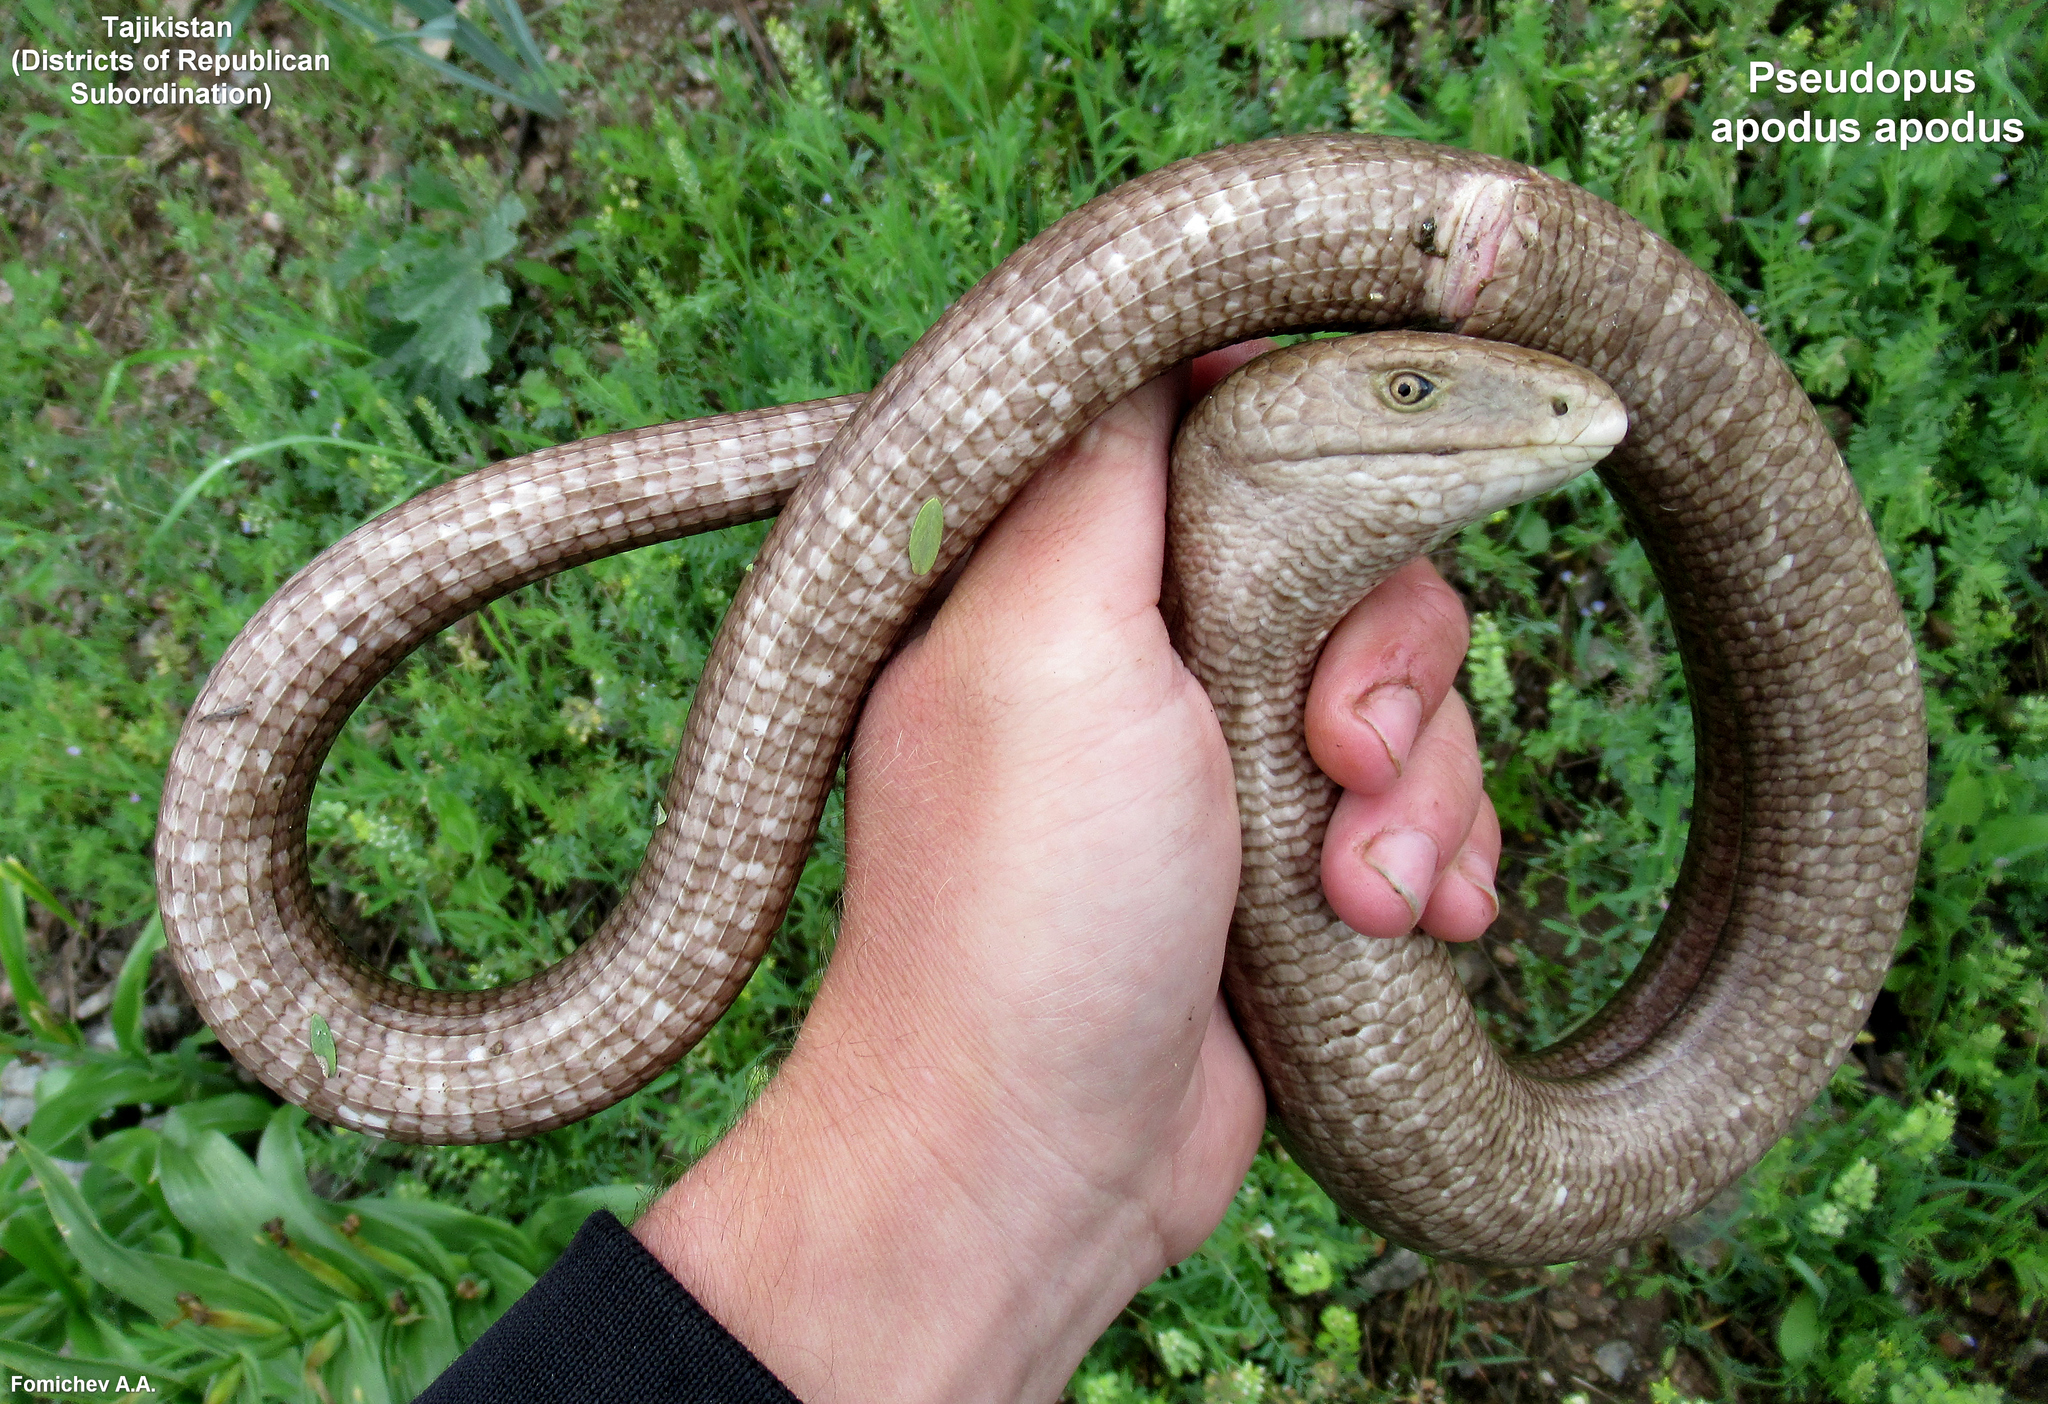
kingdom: Animalia
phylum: Chordata
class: Squamata
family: Anguidae
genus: Pseudopus
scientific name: Pseudopus apodus
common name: European glass lizard
